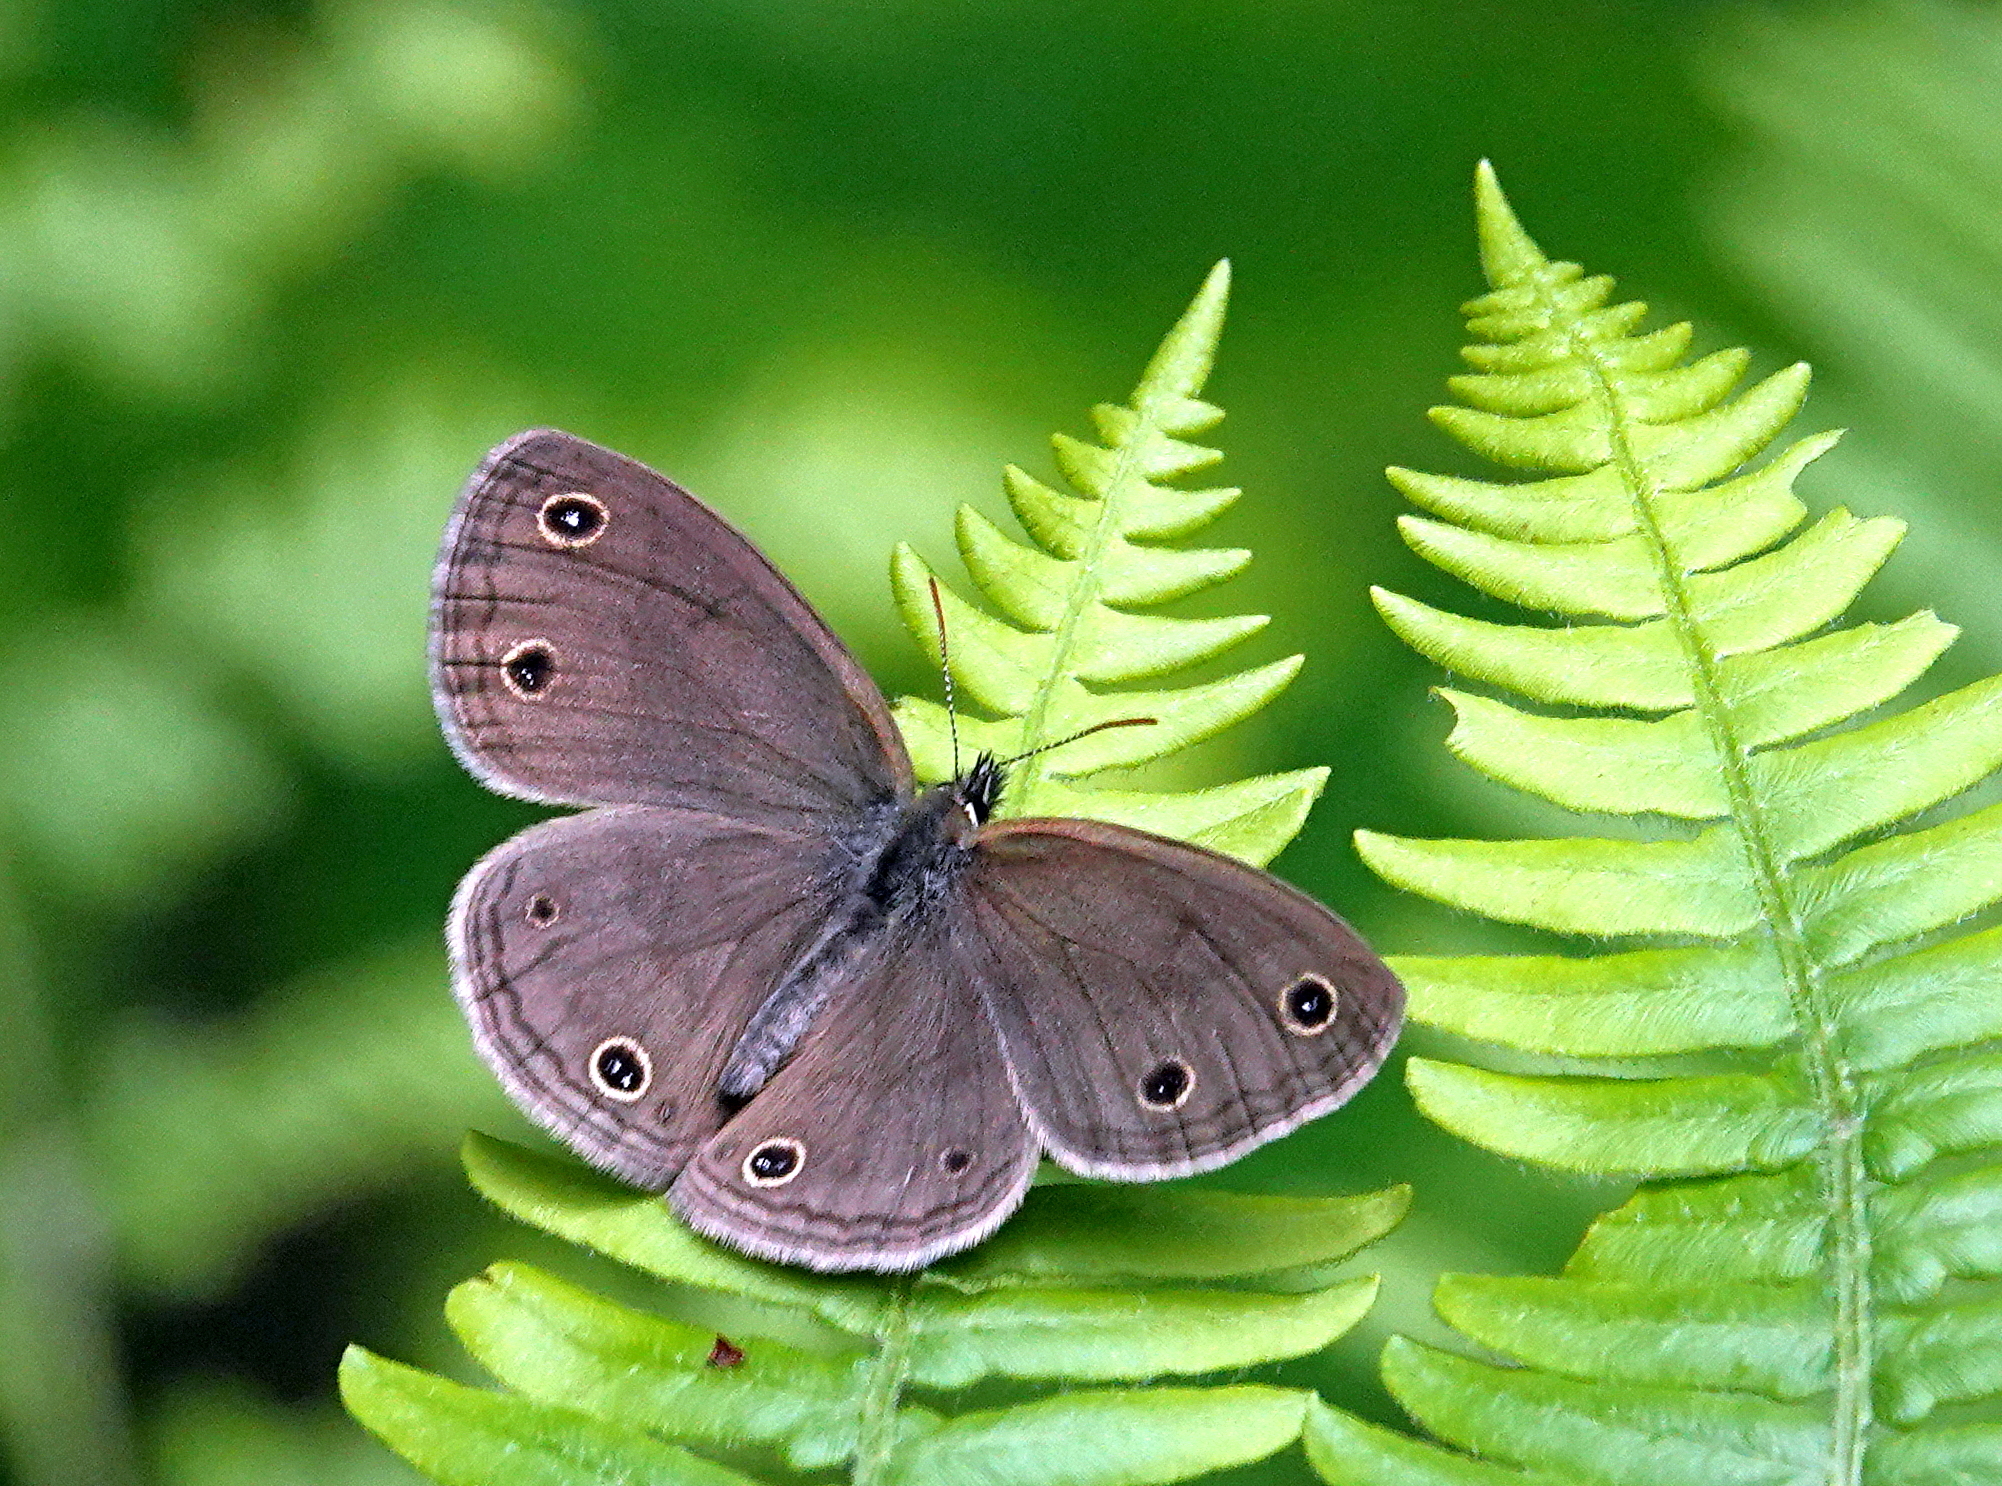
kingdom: Animalia
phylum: Arthropoda
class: Insecta
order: Lepidoptera
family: Nymphalidae
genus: Euptychia
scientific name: Euptychia cymela
